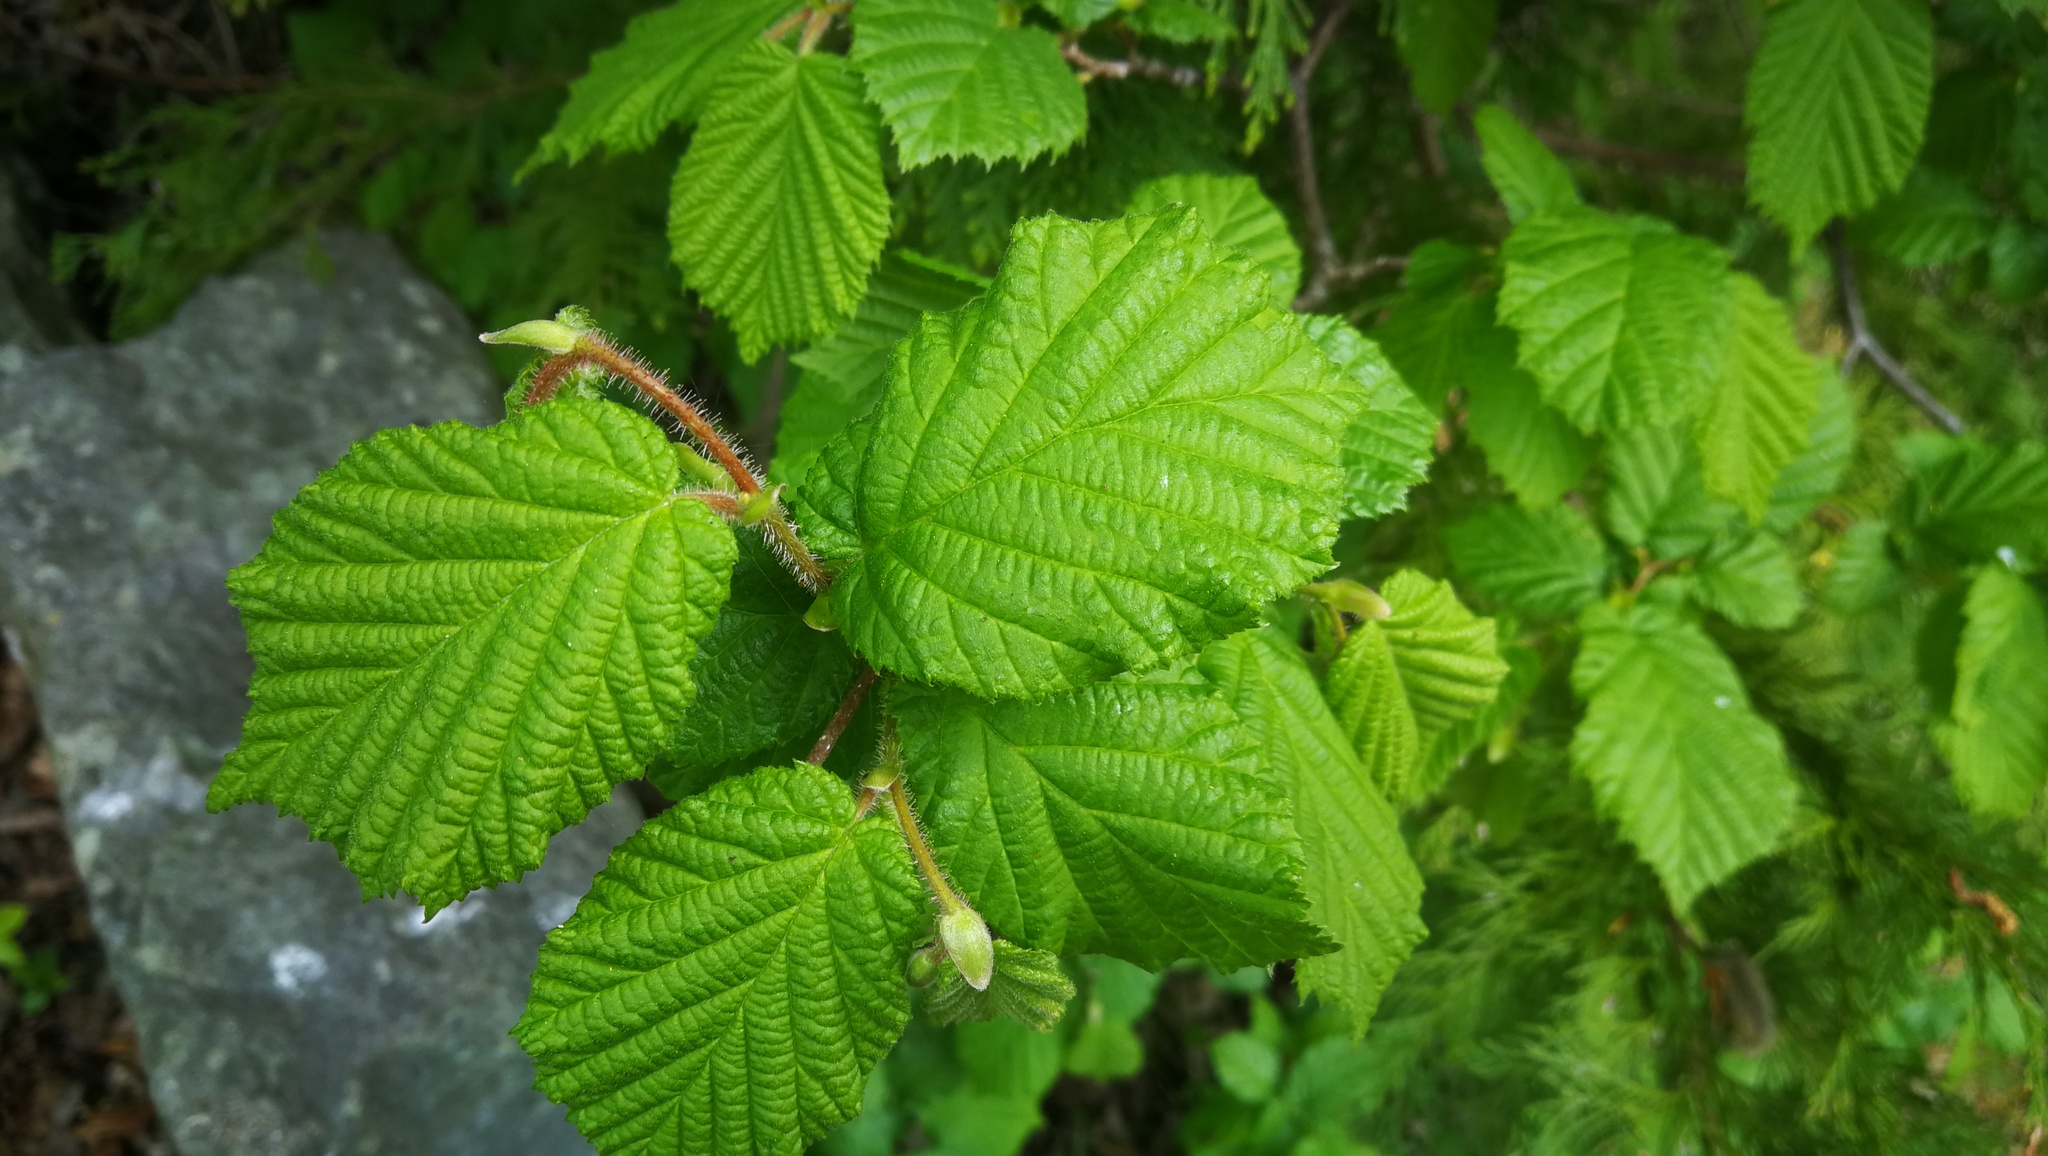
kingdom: Plantae
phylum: Tracheophyta
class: Magnoliopsida
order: Fagales
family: Betulaceae
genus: Corylus
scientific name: Corylus avellana
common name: European hazel
